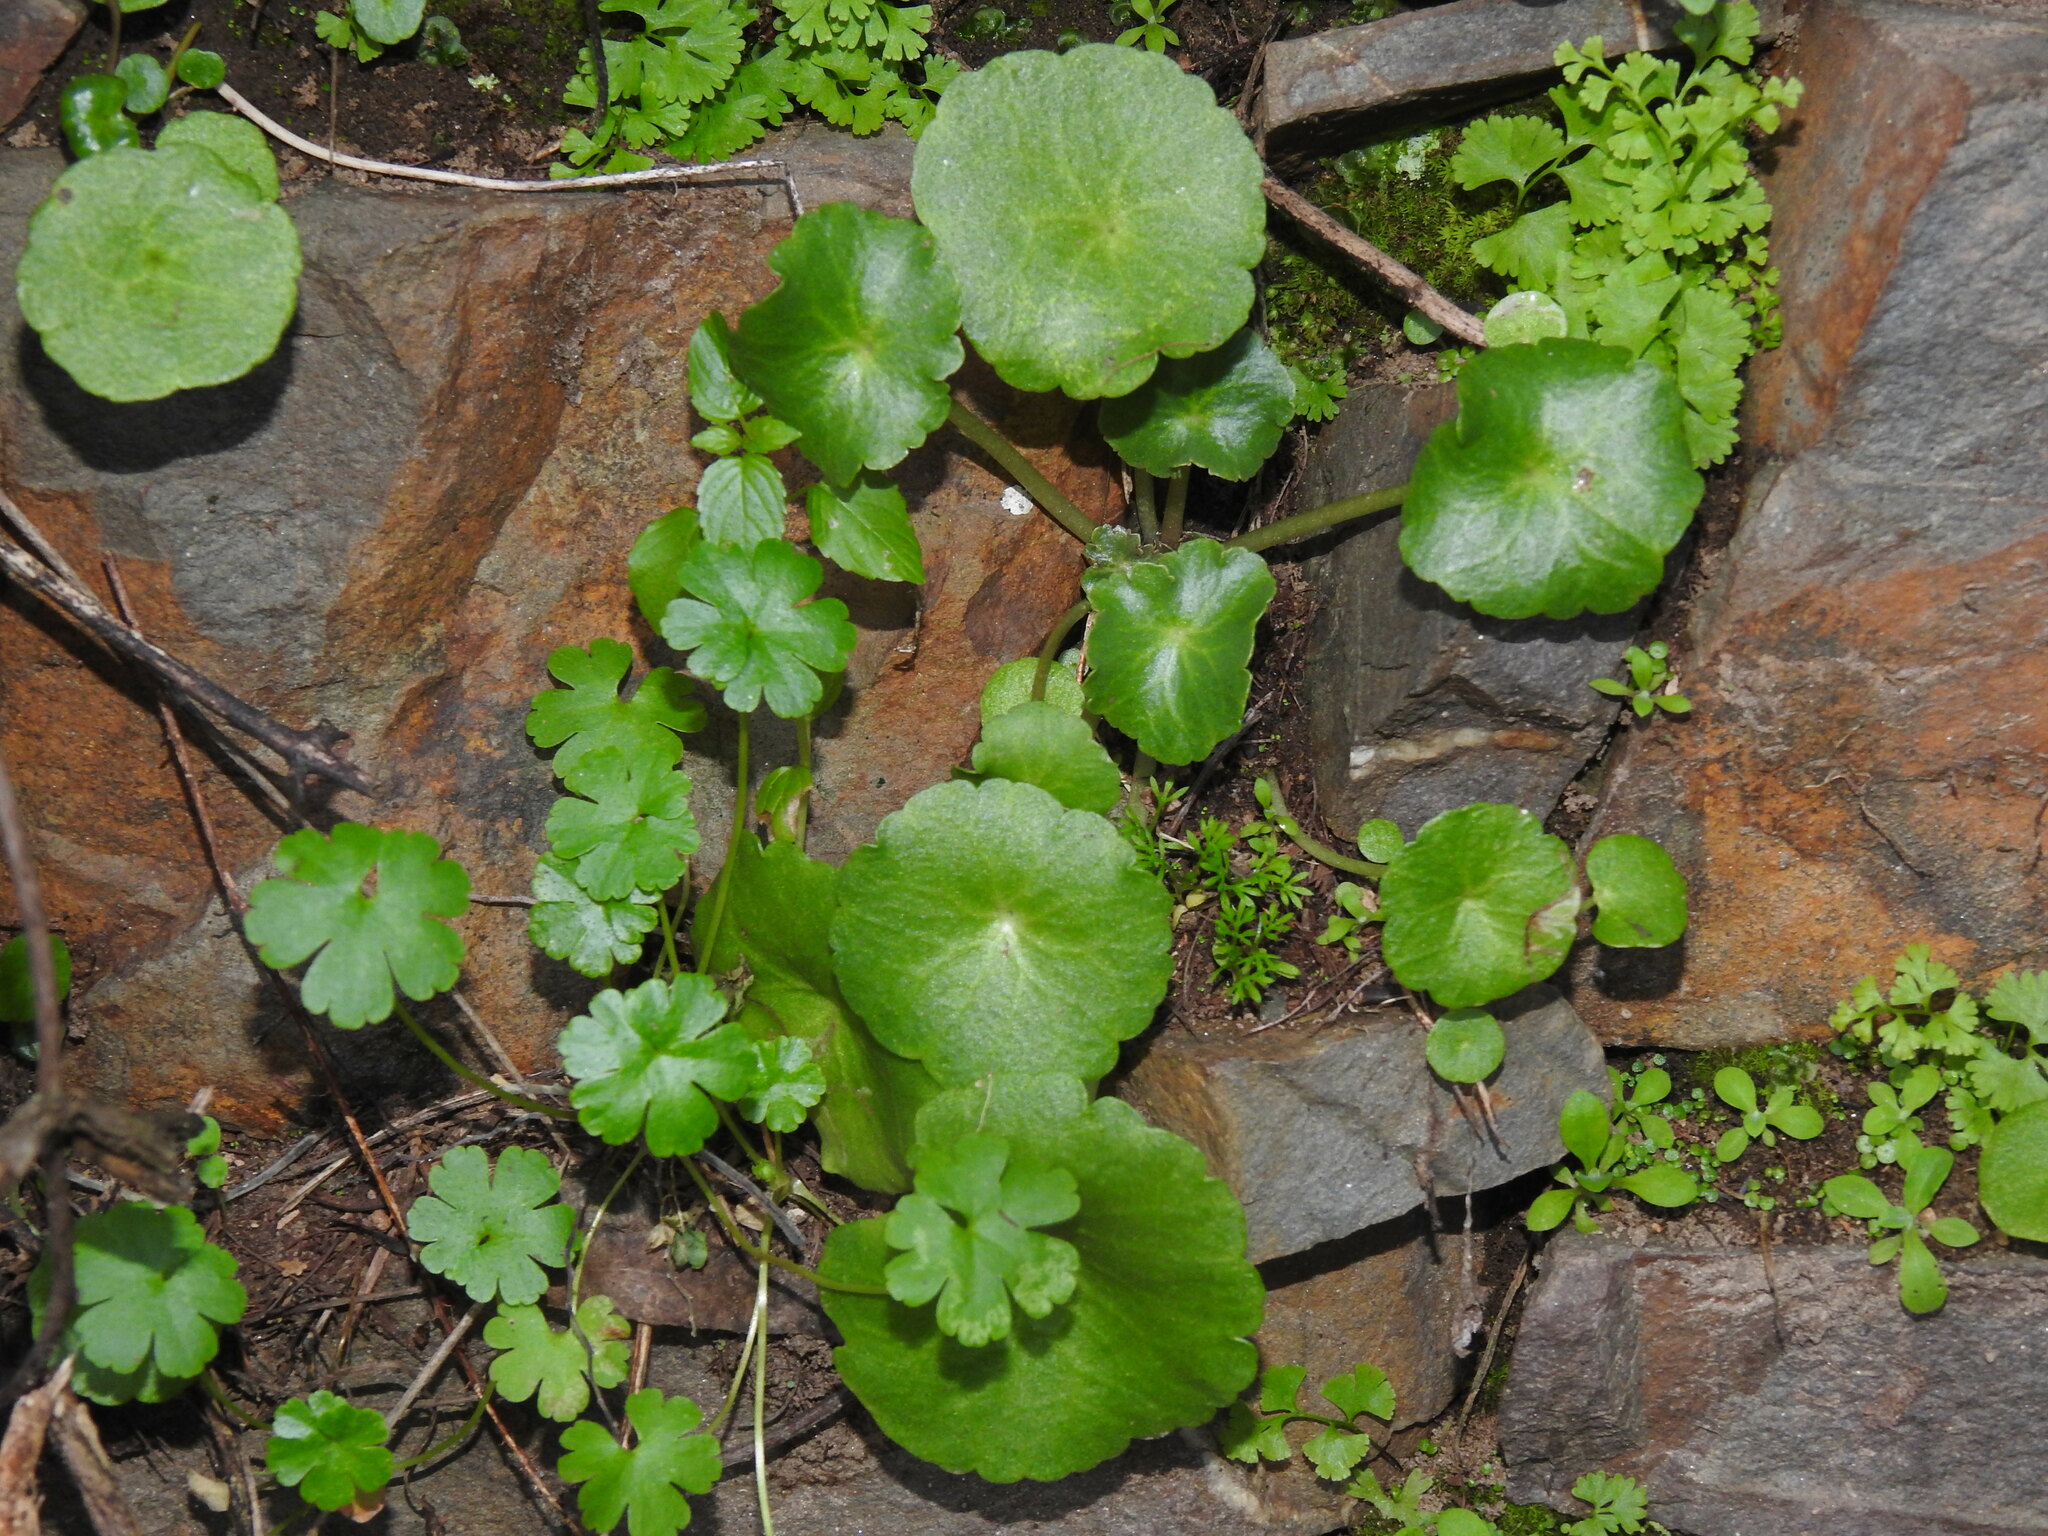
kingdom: Plantae
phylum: Tracheophyta
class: Magnoliopsida
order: Saxifragales
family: Crassulaceae
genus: Umbilicus
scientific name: Umbilicus rupestris
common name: Navelwort
